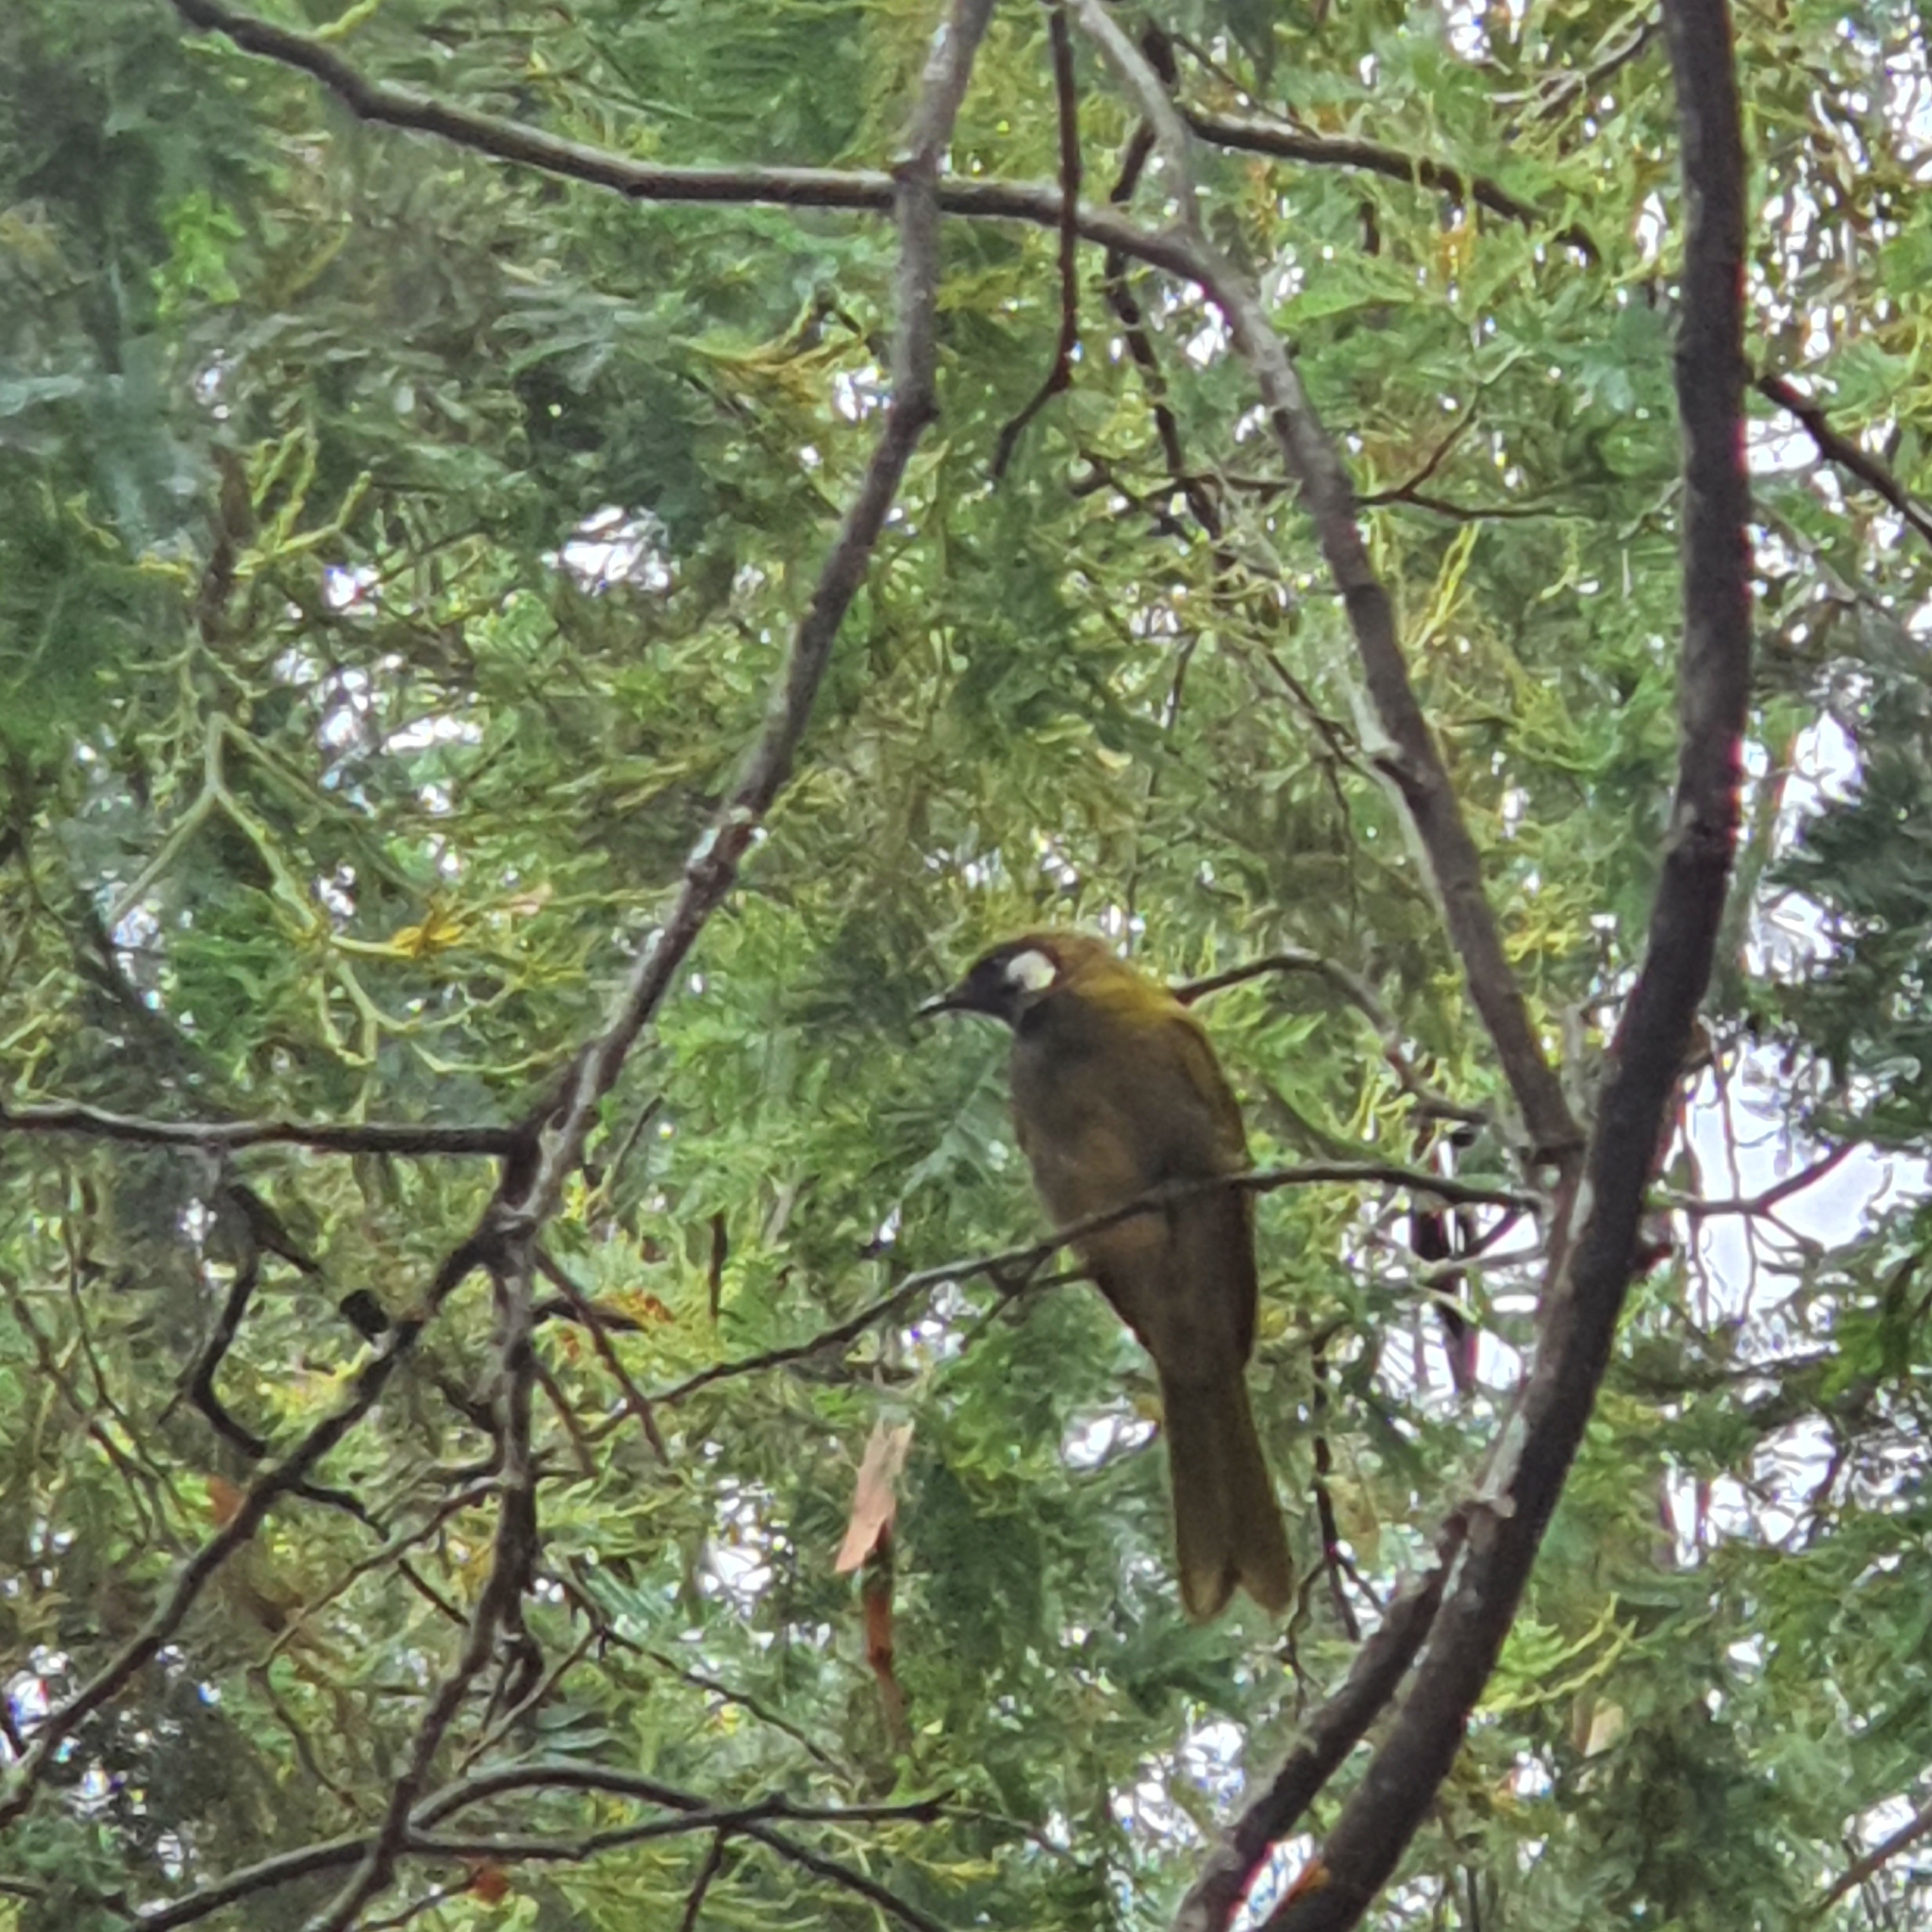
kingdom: Animalia
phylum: Chordata
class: Aves
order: Passeriformes
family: Meliphagidae
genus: Nesoptilotis
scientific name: Nesoptilotis leucotis
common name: White-eared honeyeater
